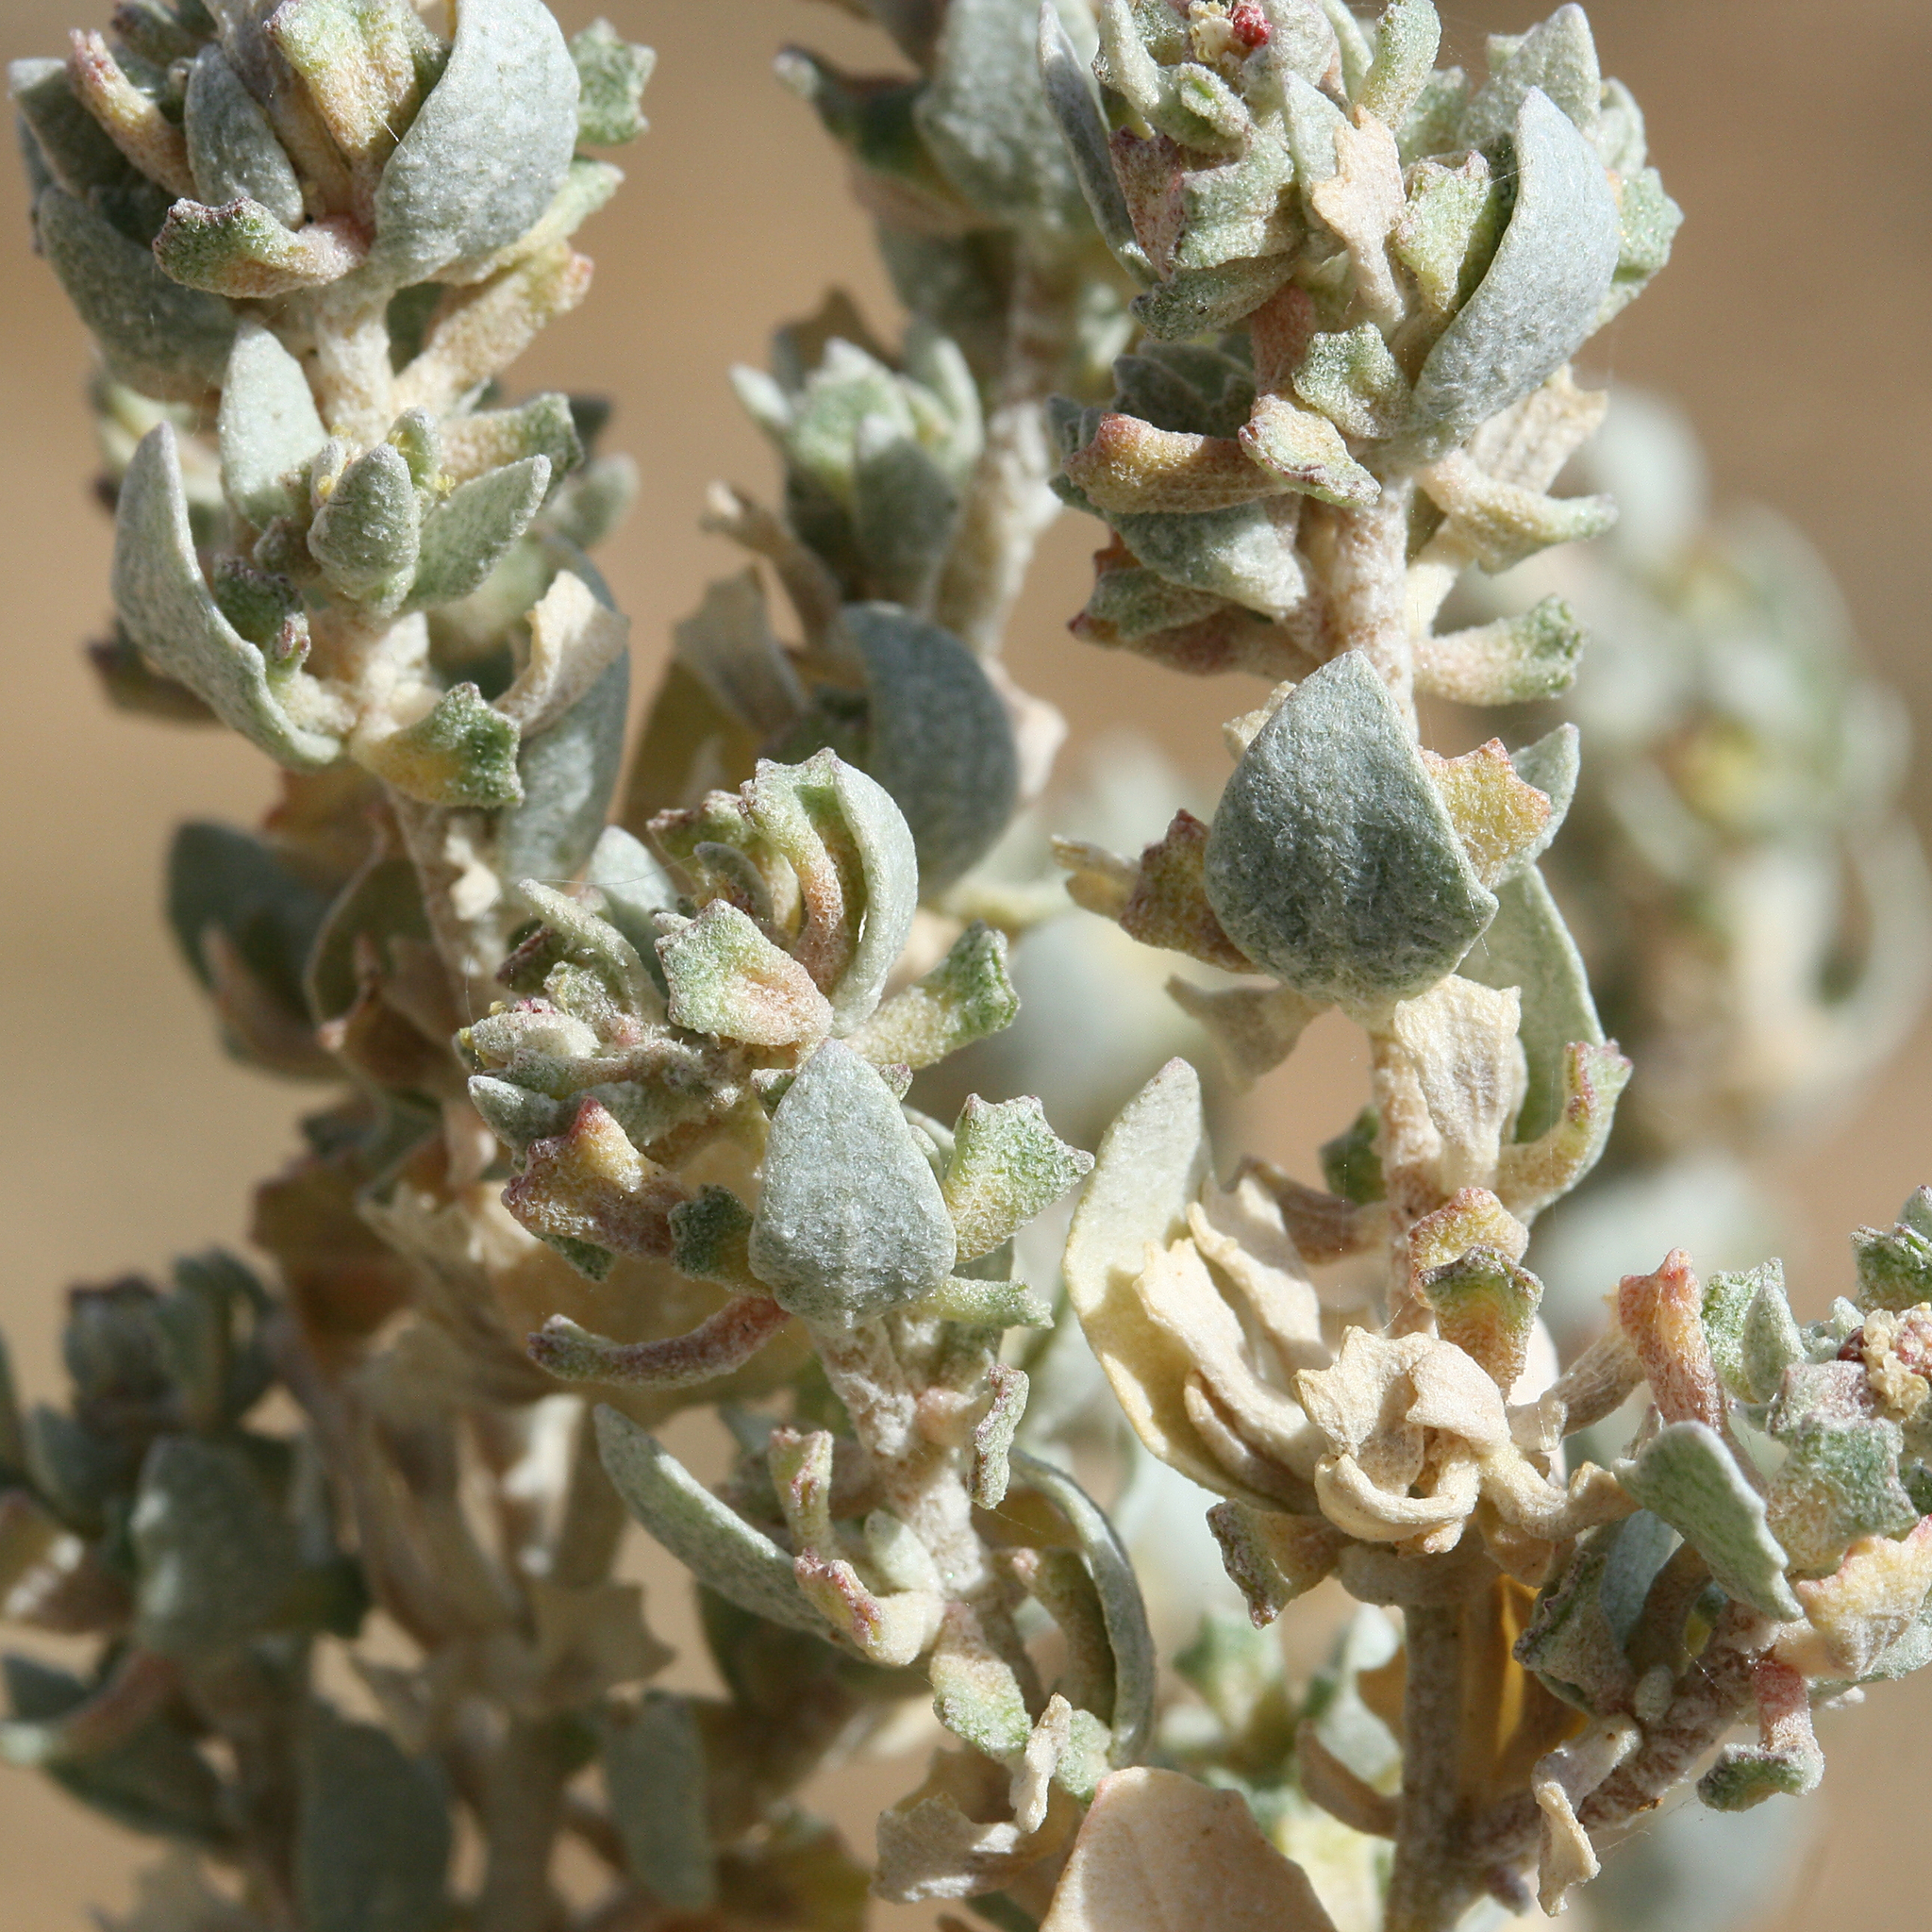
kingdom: Plantae
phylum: Tracheophyta
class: Magnoliopsida
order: Caryophyllales
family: Amaranthaceae
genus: Atriplex
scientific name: Atriplex turbinata
